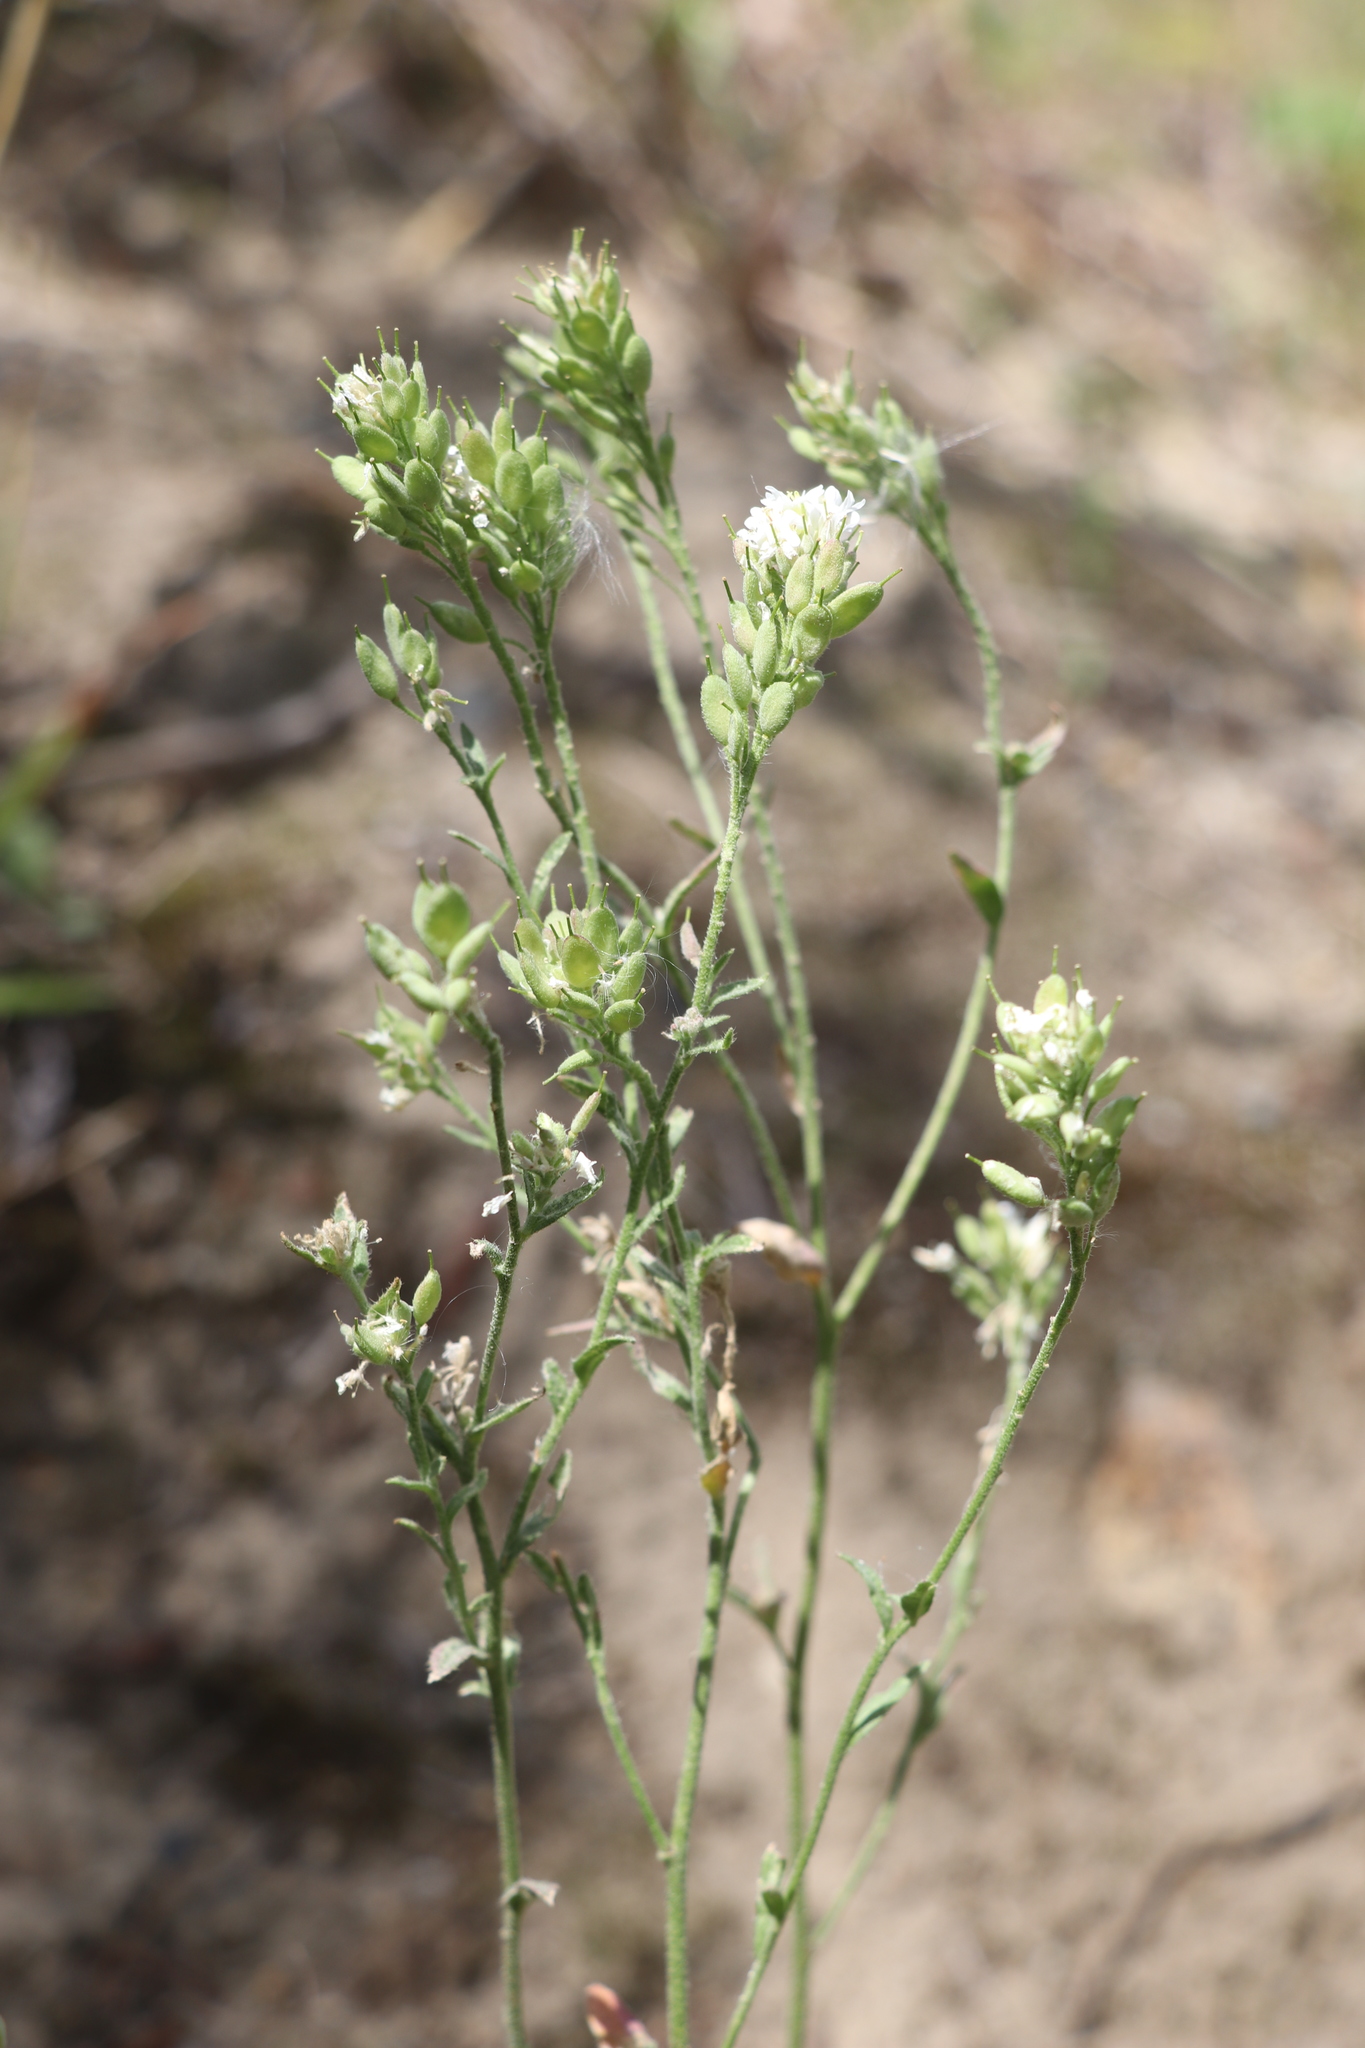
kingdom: Plantae
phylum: Tracheophyta
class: Magnoliopsida
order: Brassicales
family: Brassicaceae
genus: Berteroa
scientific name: Berteroa incana
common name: Hoary alison
